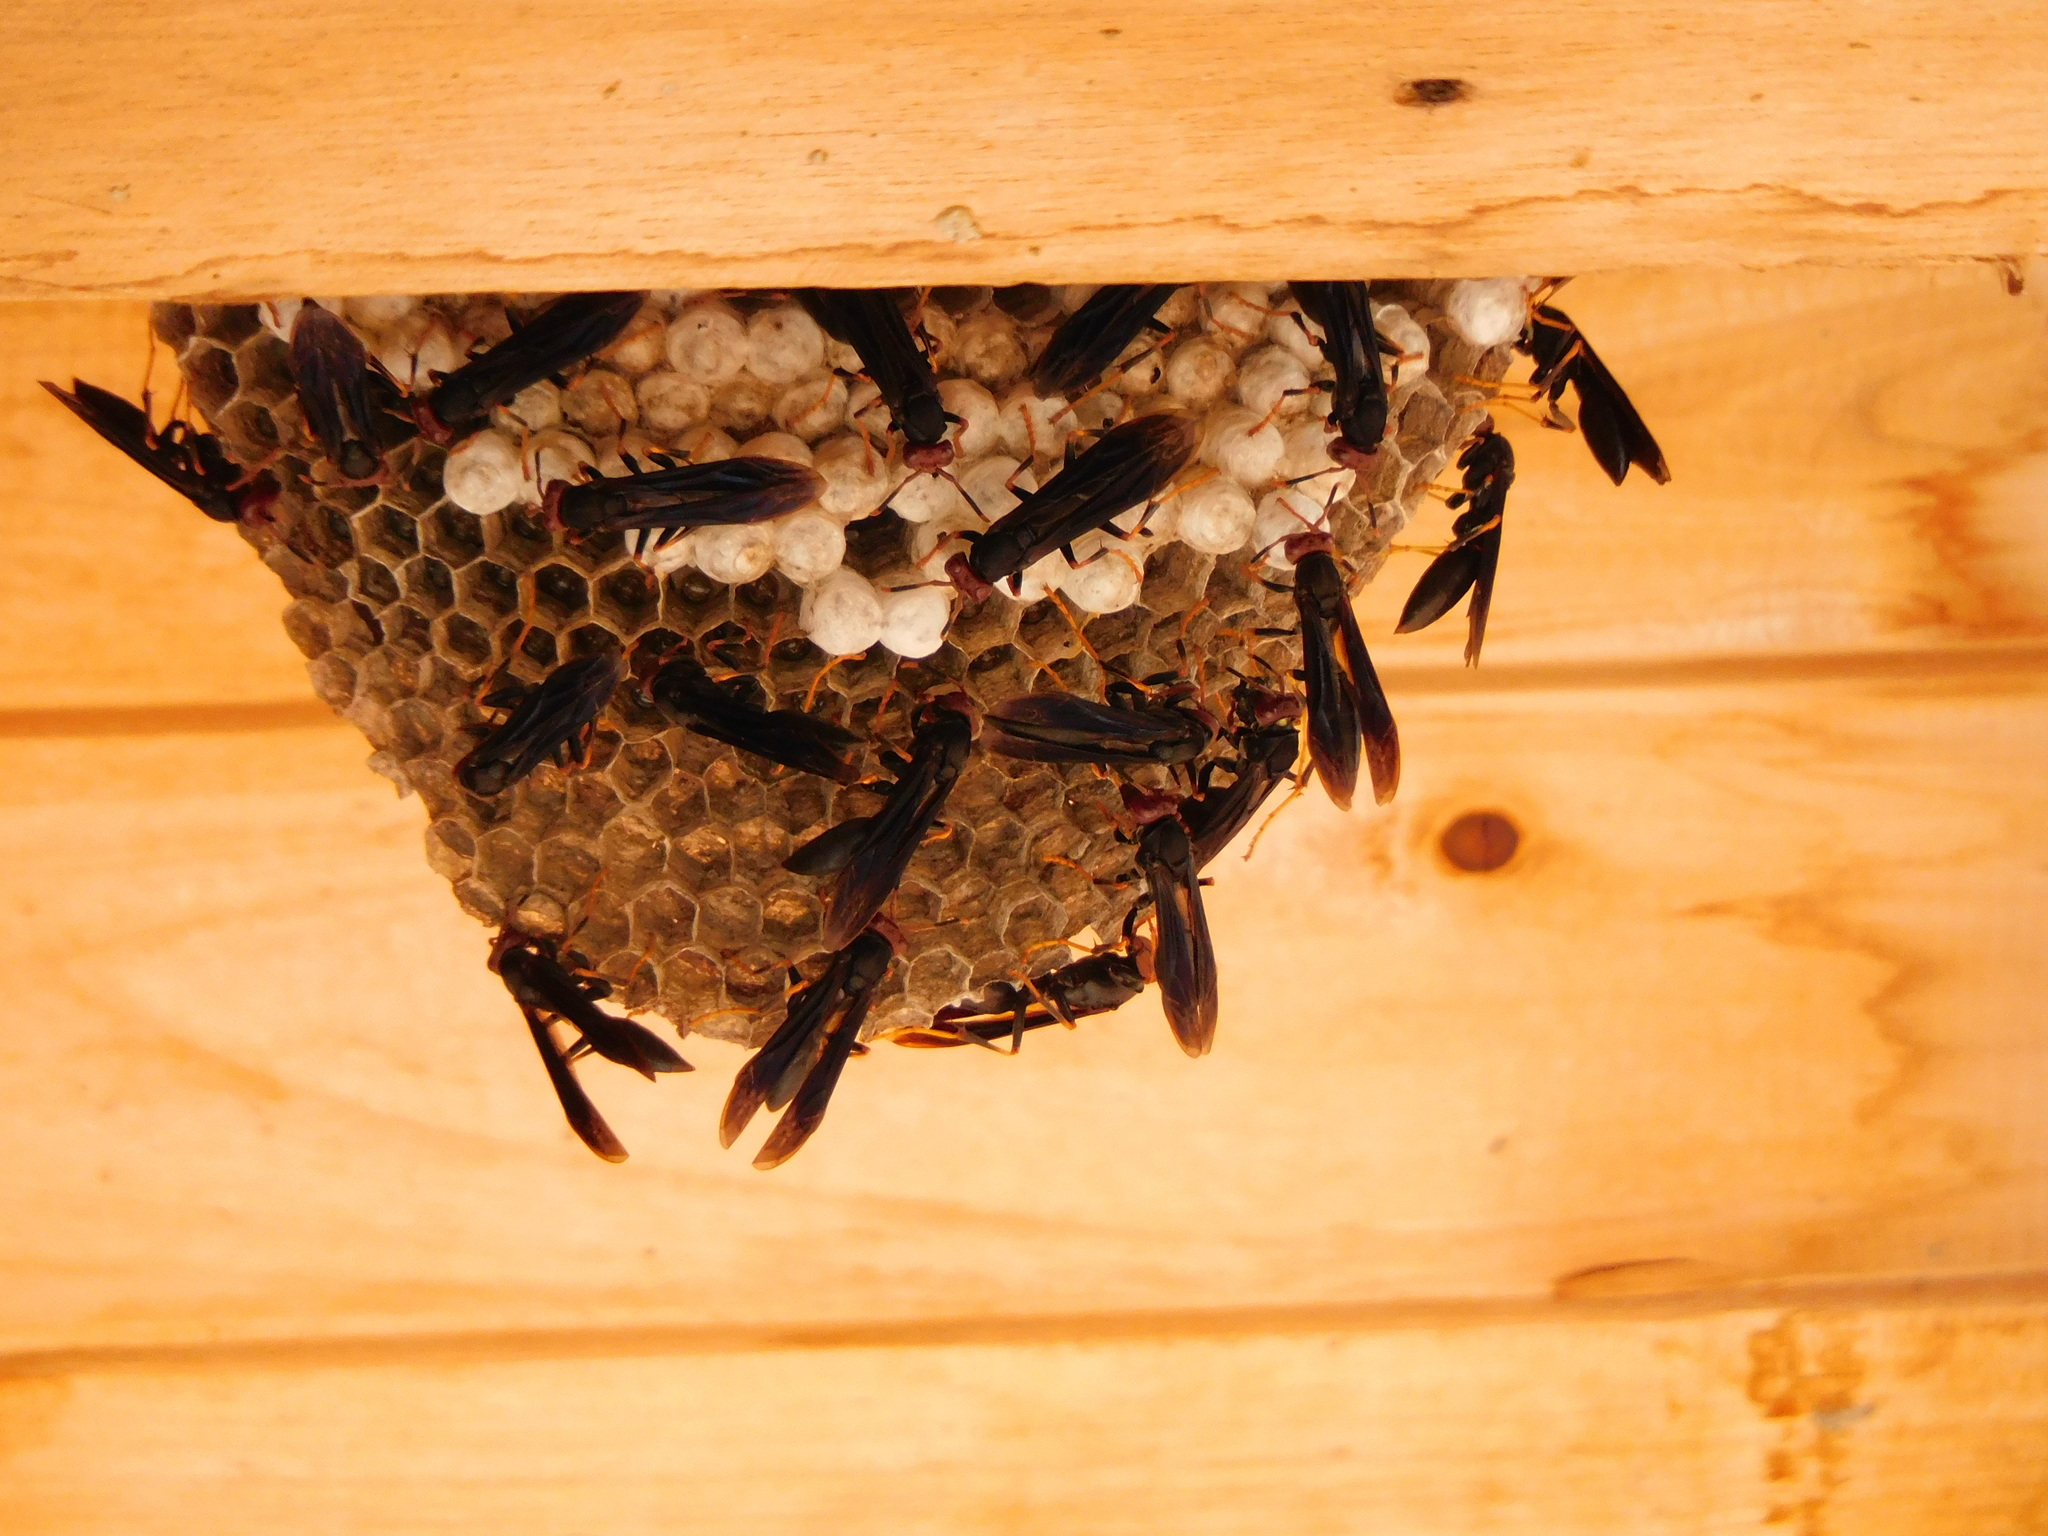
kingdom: Animalia
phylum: Arthropoda
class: Insecta
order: Hymenoptera
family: Eumenidae
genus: Polistes
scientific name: Polistes erythrocephalus
